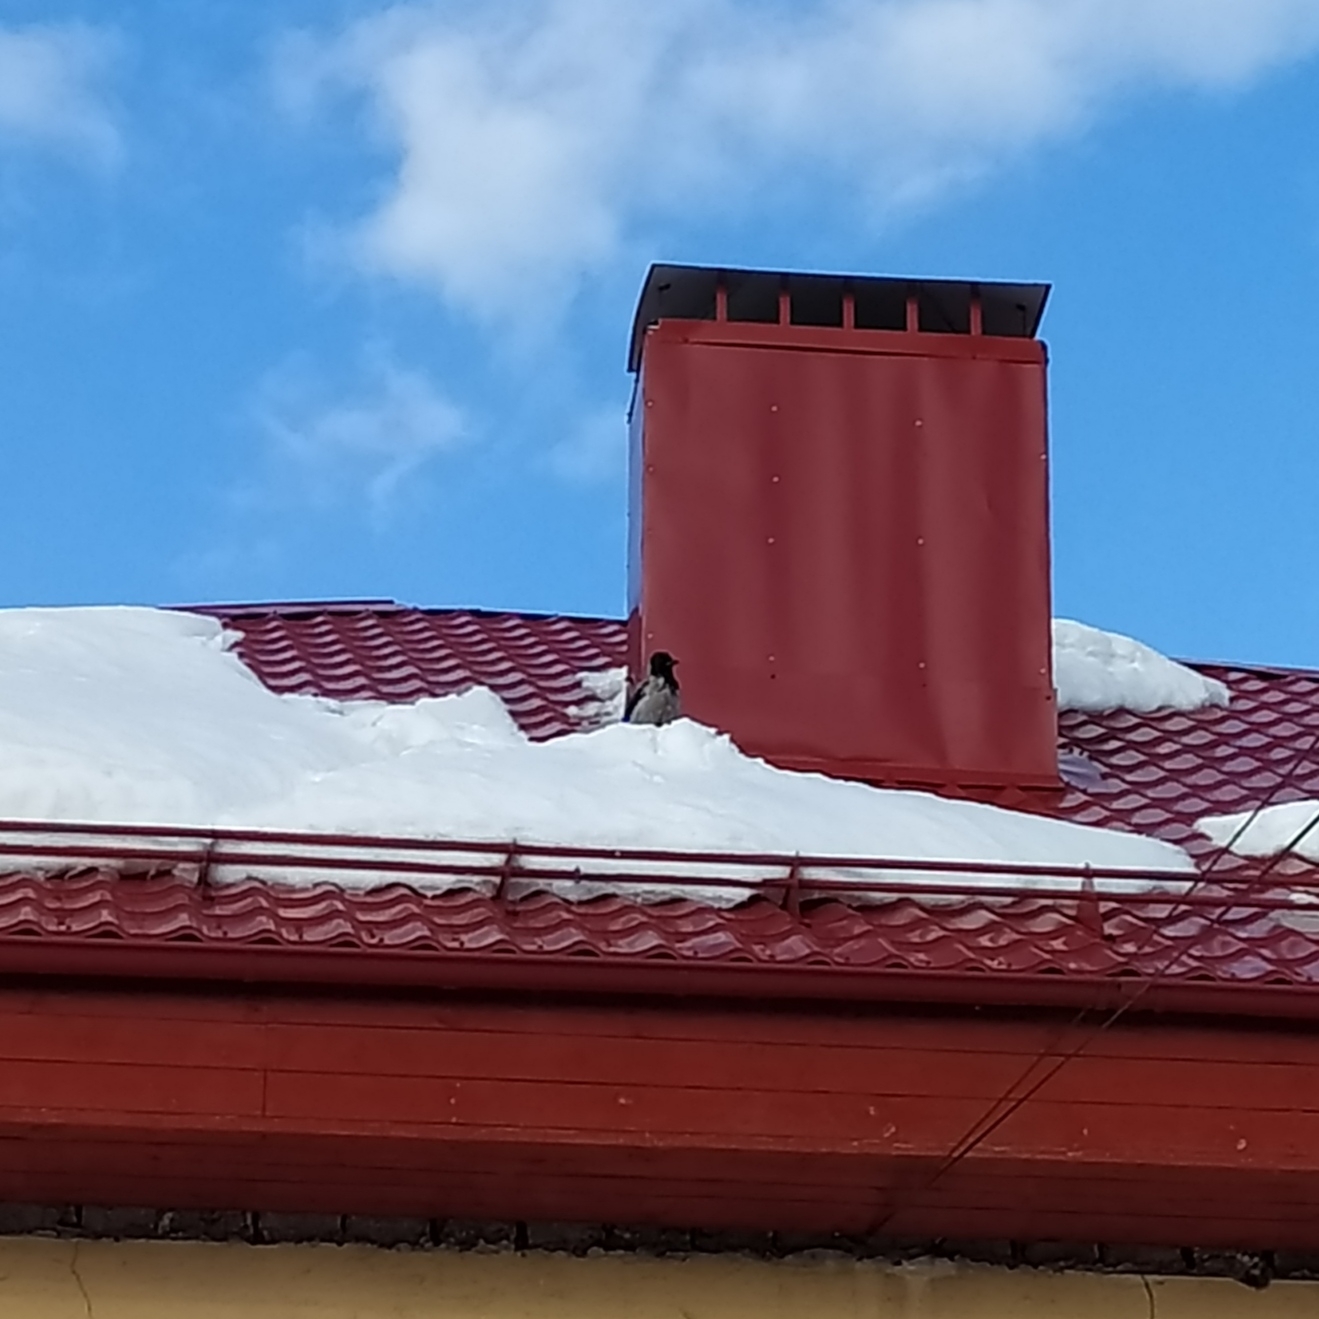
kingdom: Animalia
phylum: Chordata
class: Aves
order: Passeriformes
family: Corvidae
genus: Corvus
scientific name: Corvus cornix
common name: Hooded crow
